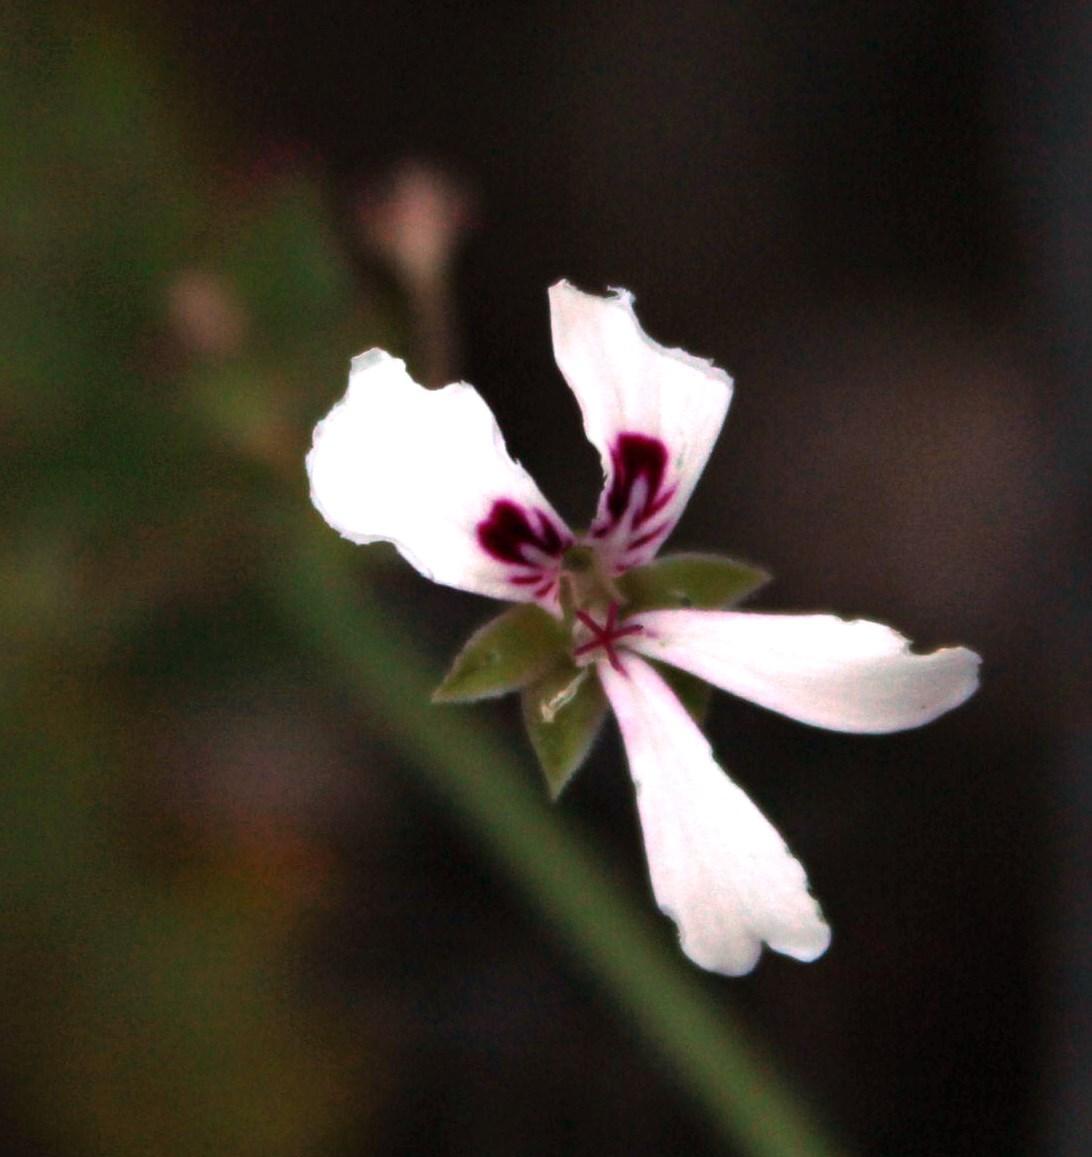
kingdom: Plantae
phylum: Tracheophyta
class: Magnoliopsida
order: Geraniales
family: Geraniaceae
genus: Pelargonium
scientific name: Pelargonium patulum
